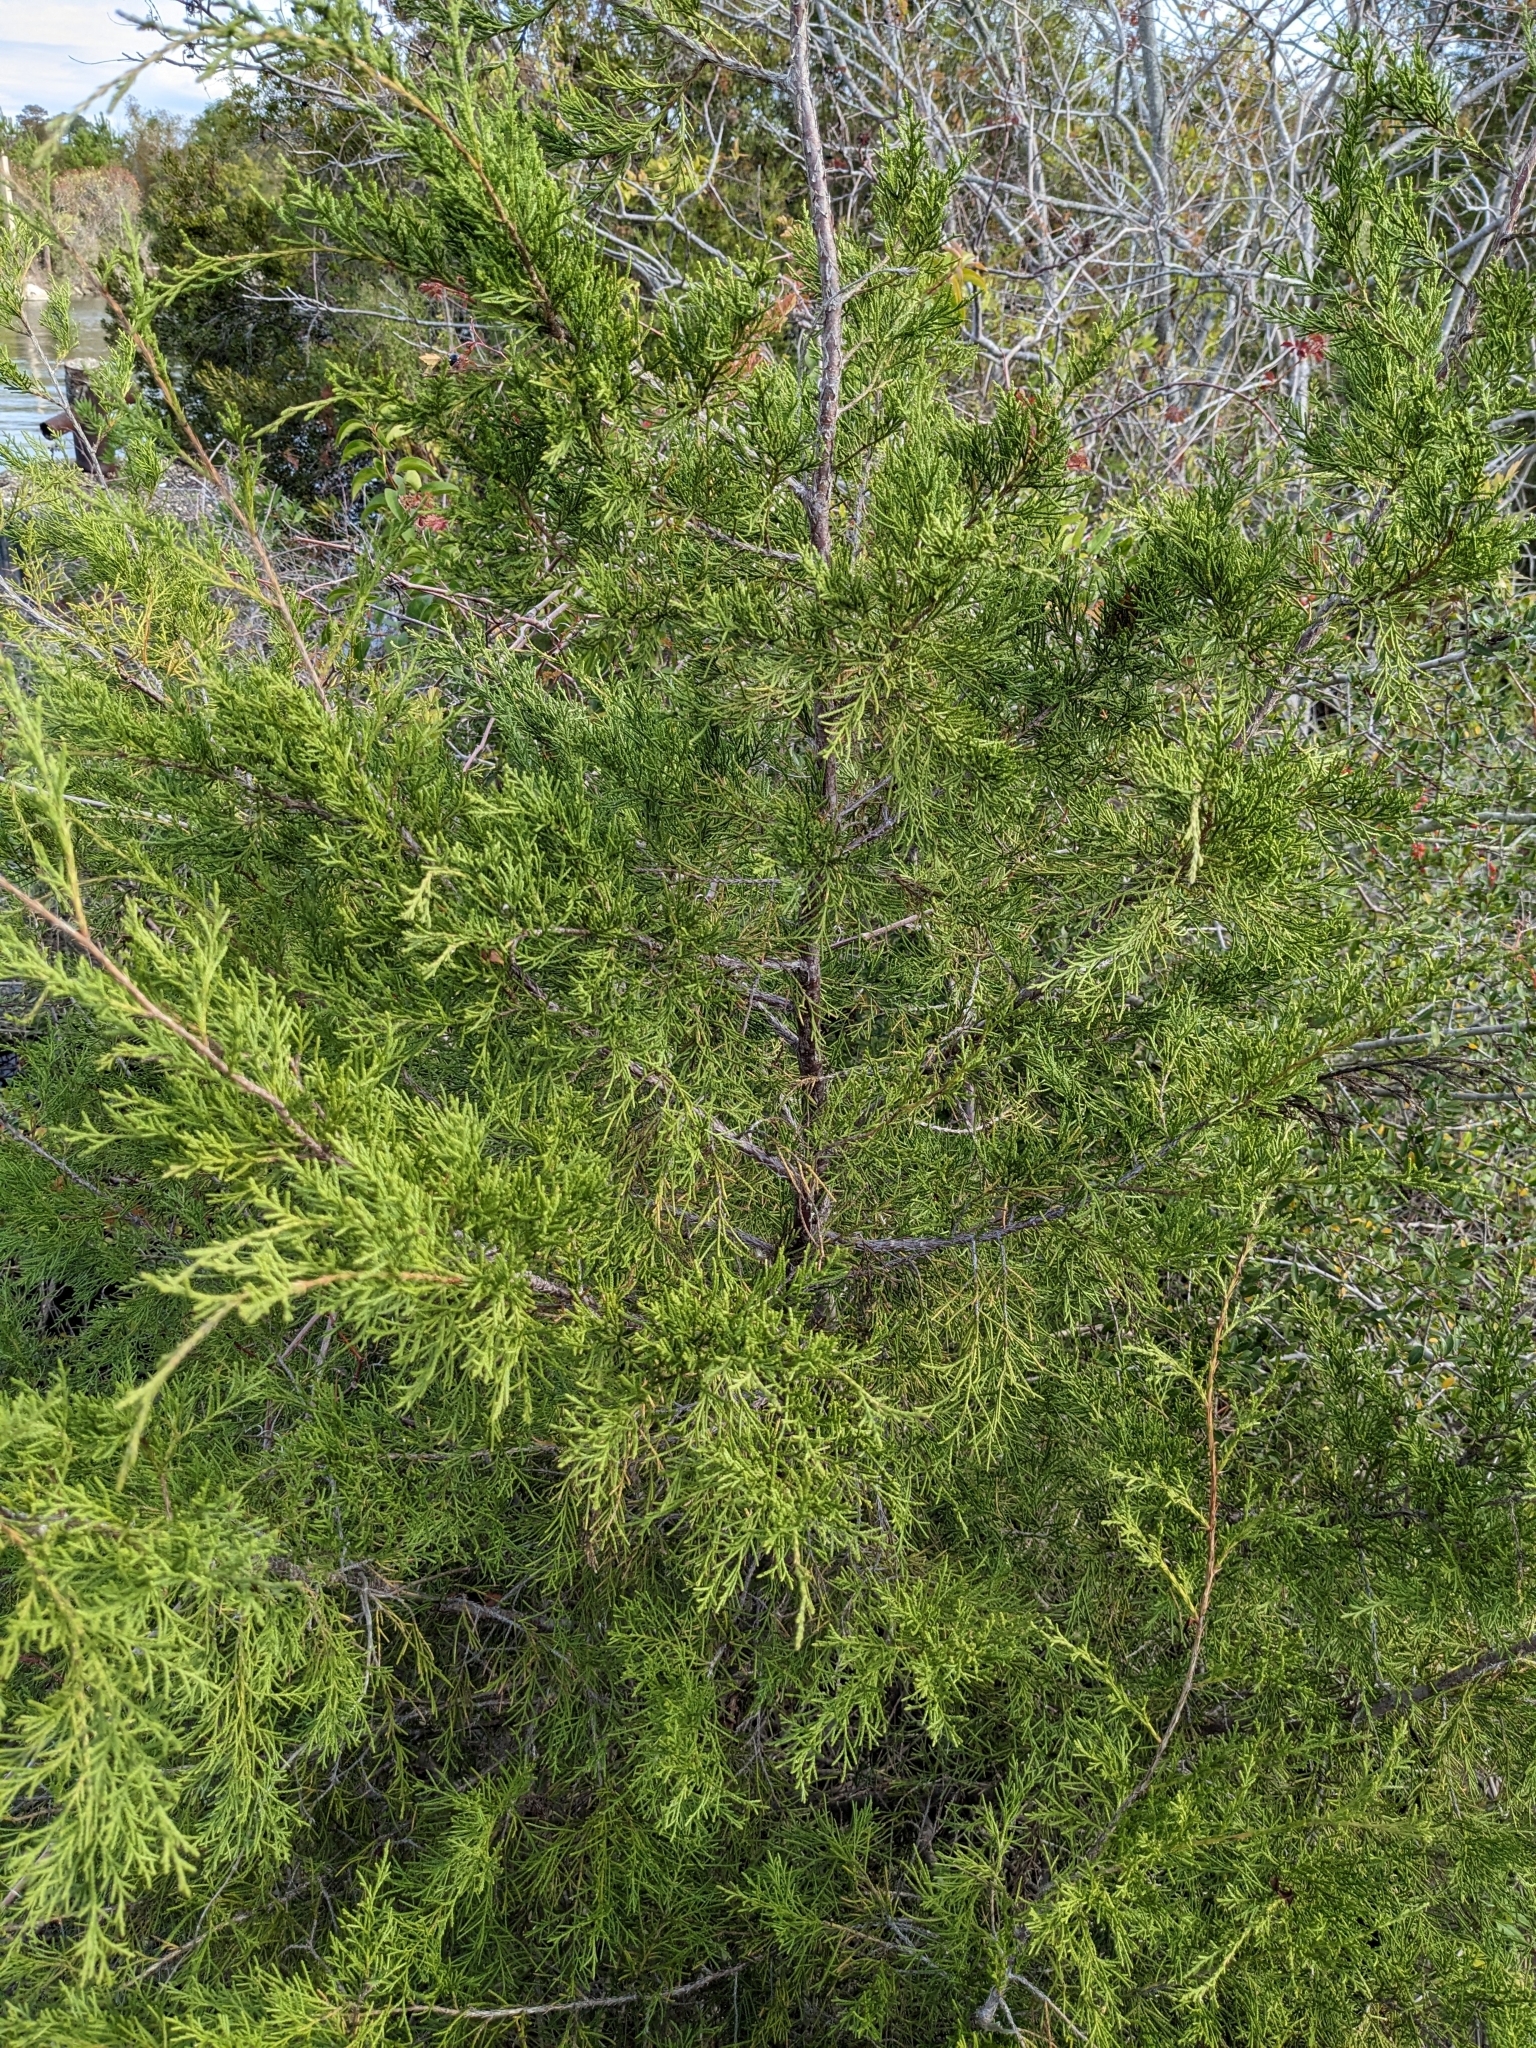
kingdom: Plantae
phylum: Tracheophyta
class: Pinopsida
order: Pinales
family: Cupressaceae
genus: Juniperus
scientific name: Juniperus virginiana
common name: Red juniper
